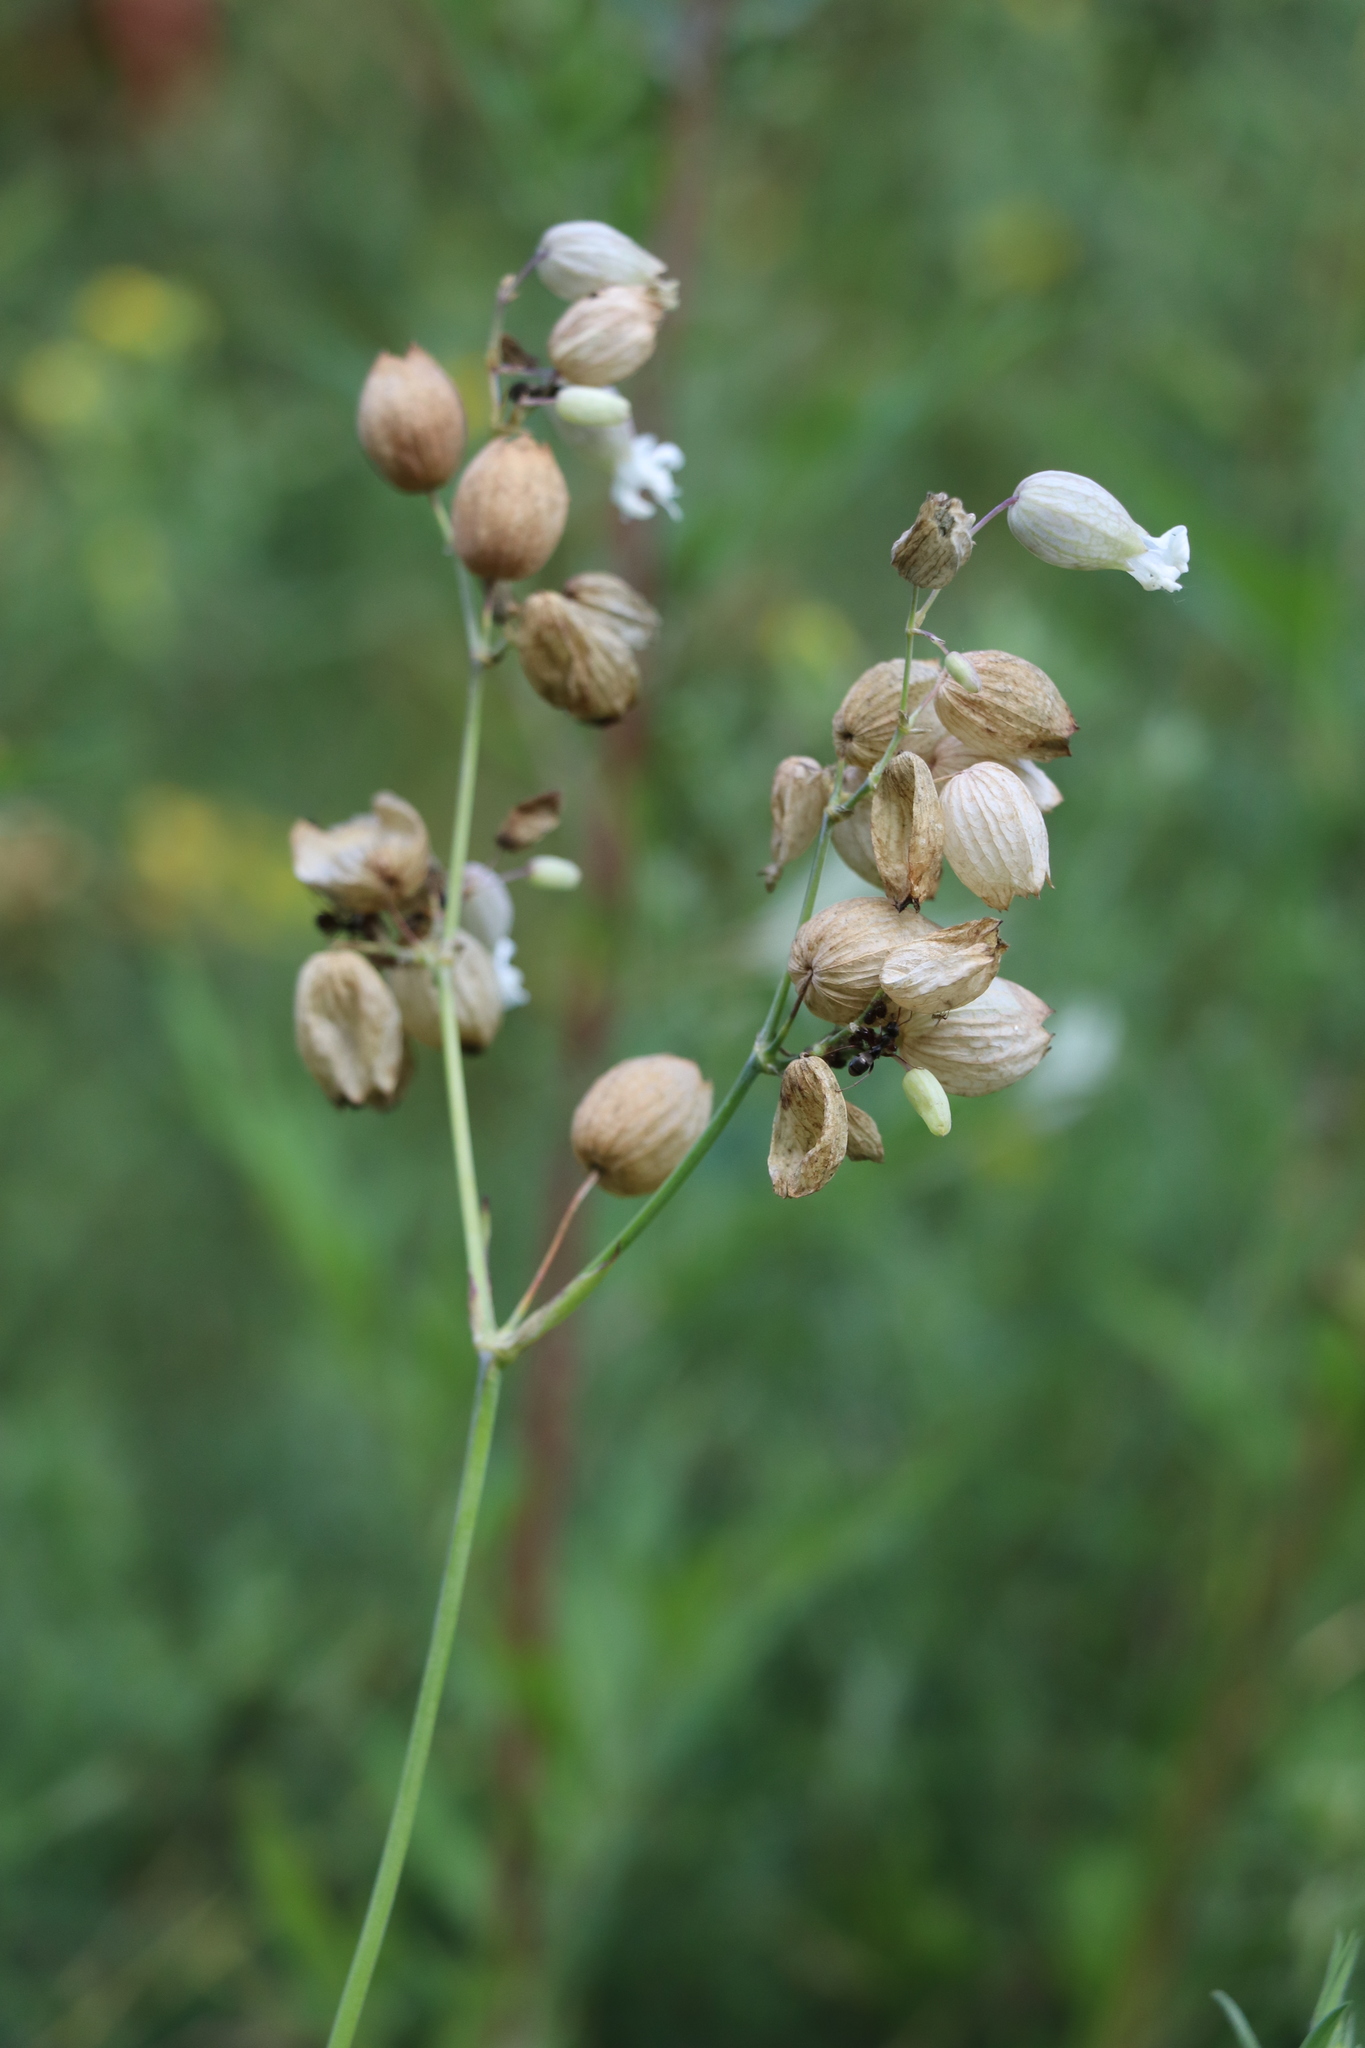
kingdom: Plantae
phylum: Tracheophyta
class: Magnoliopsida
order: Caryophyllales
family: Caryophyllaceae
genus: Silene
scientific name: Silene vulgaris
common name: Bladder campion
